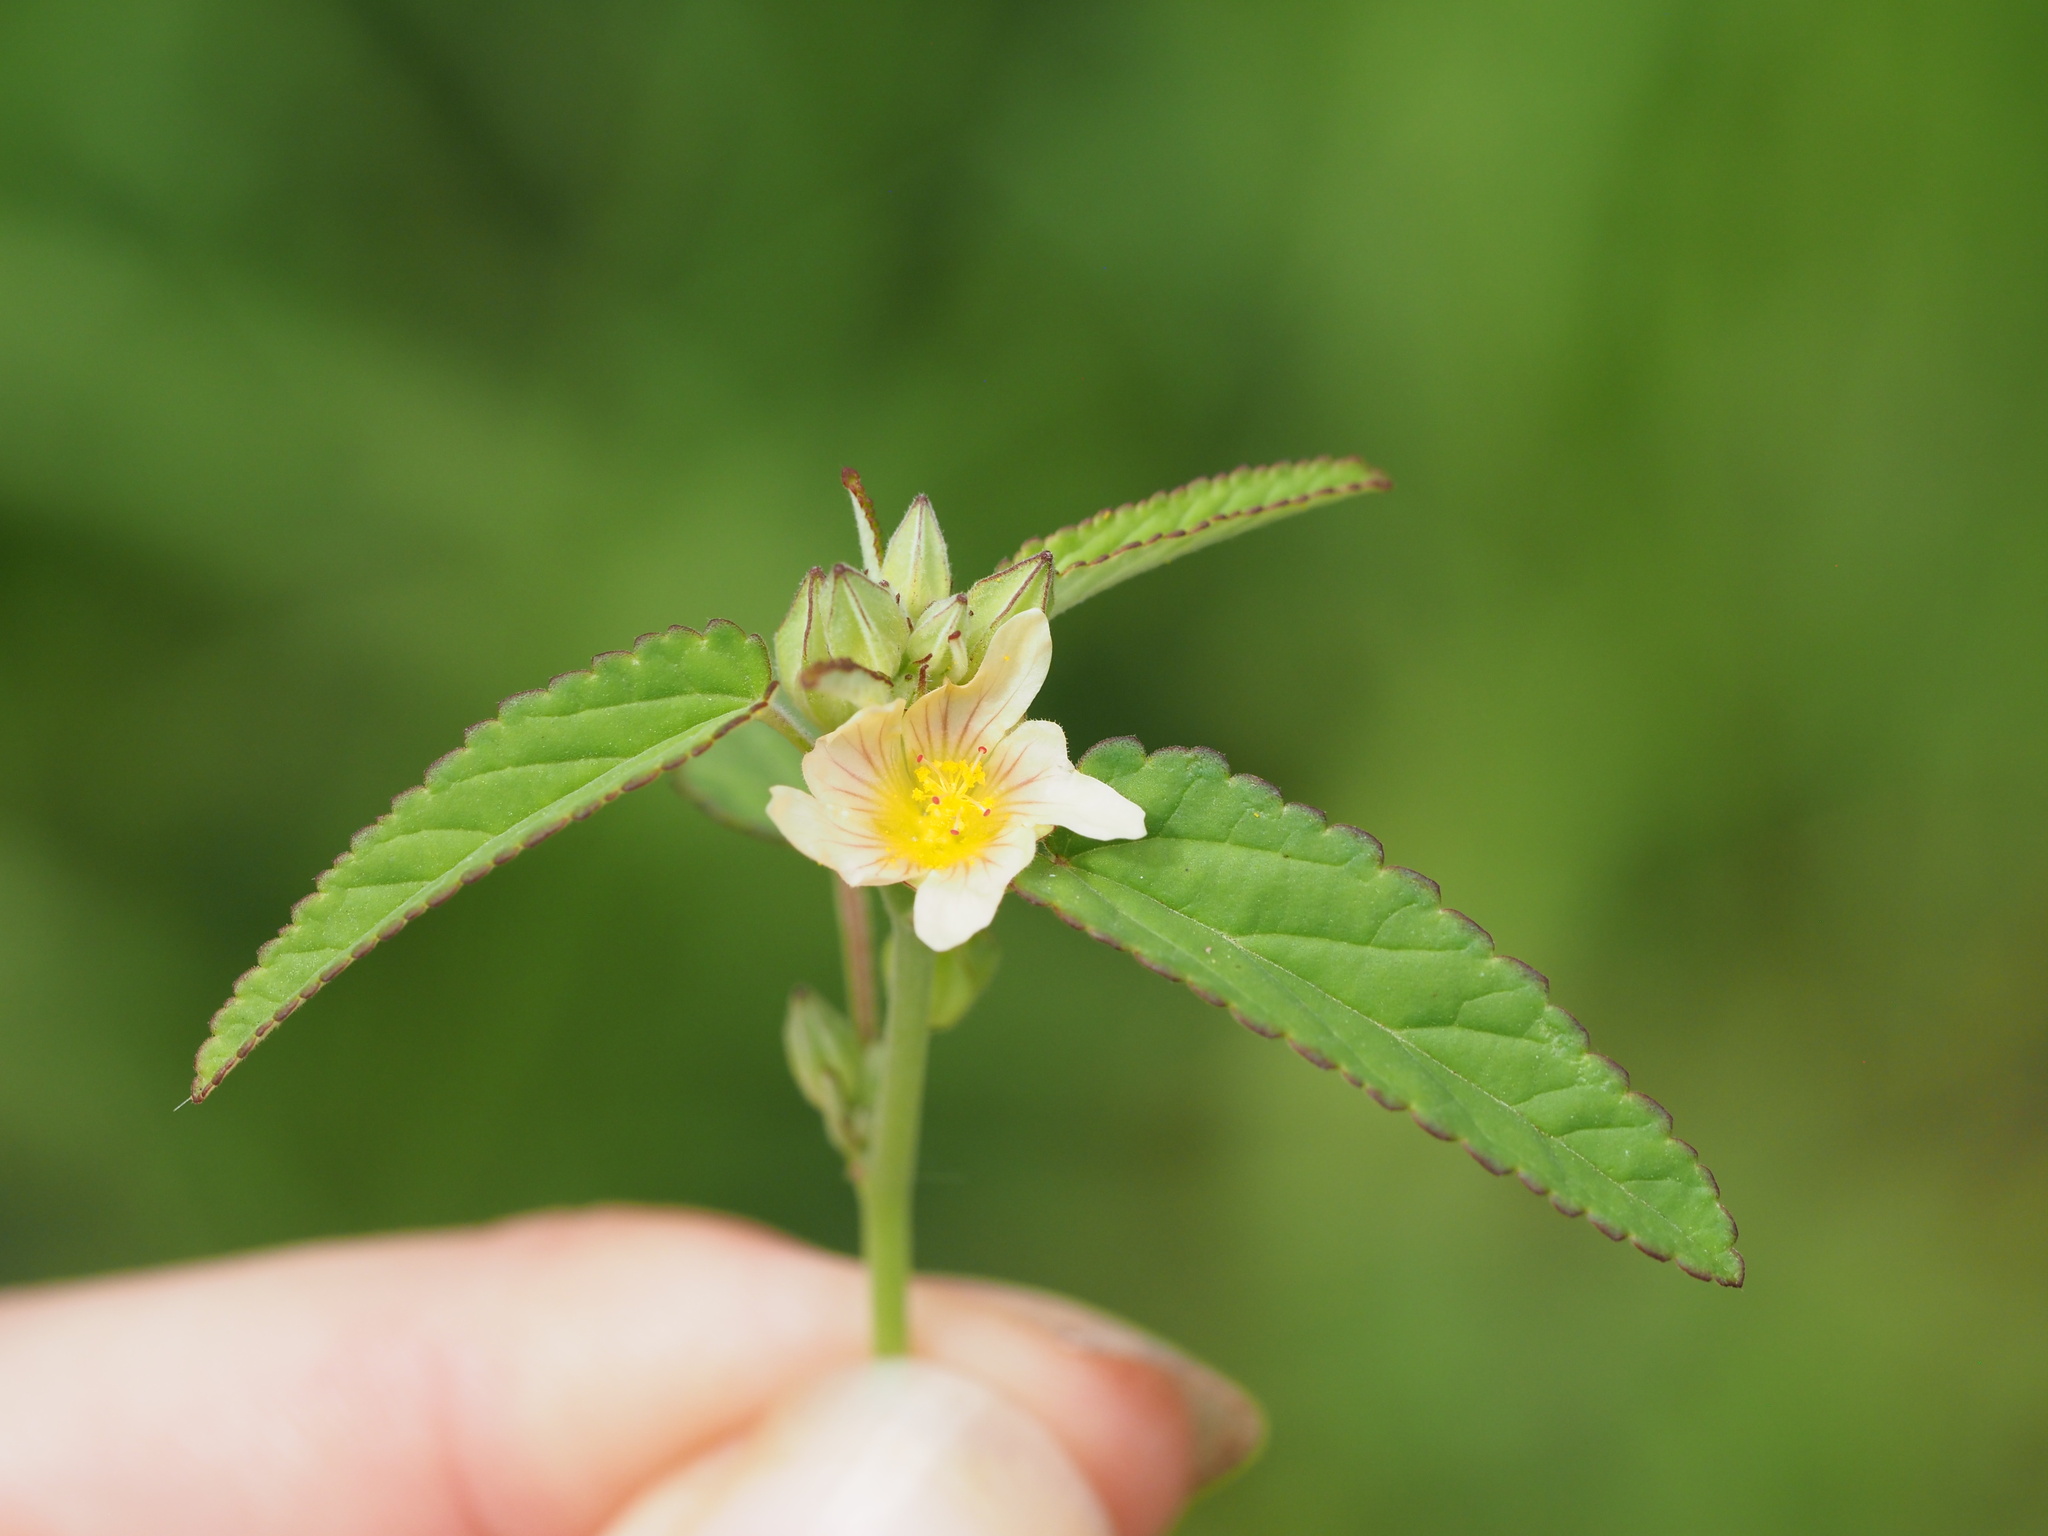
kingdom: Plantae
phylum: Tracheophyta
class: Magnoliopsida
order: Malvales
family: Malvaceae
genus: Sida
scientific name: Sida spinosa
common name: Prickly fanpetals
